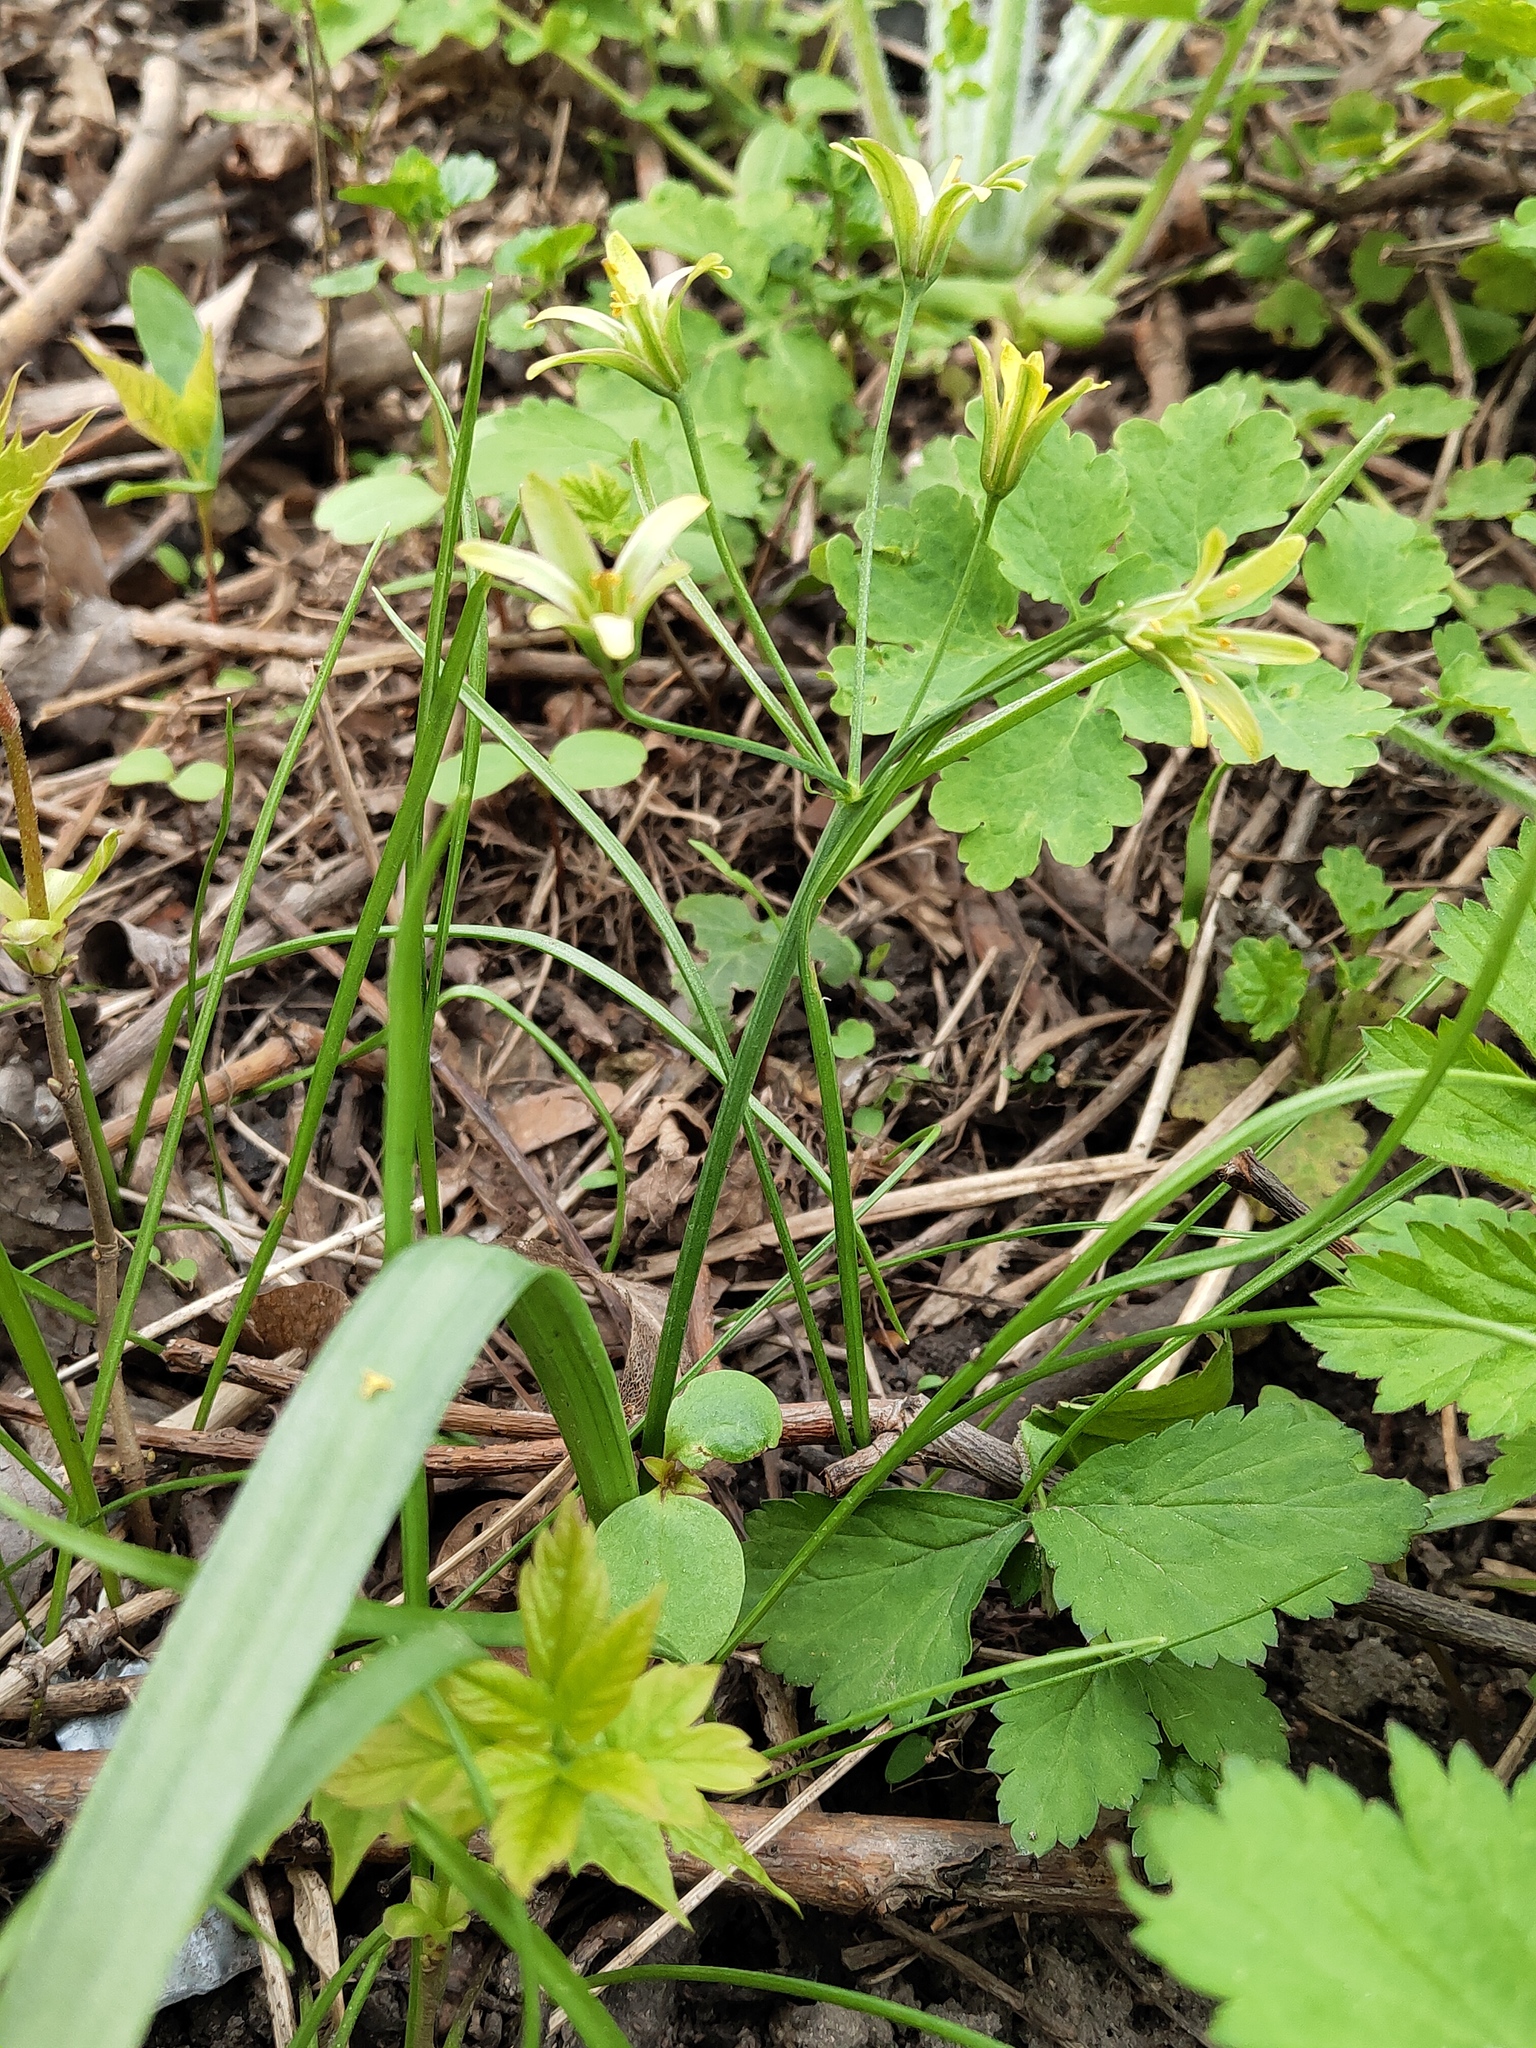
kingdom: Plantae
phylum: Tracheophyta
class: Liliopsida
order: Liliales
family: Liliaceae
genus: Gagea
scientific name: Gagea lutea
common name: Yellow star-of-bethlehem
